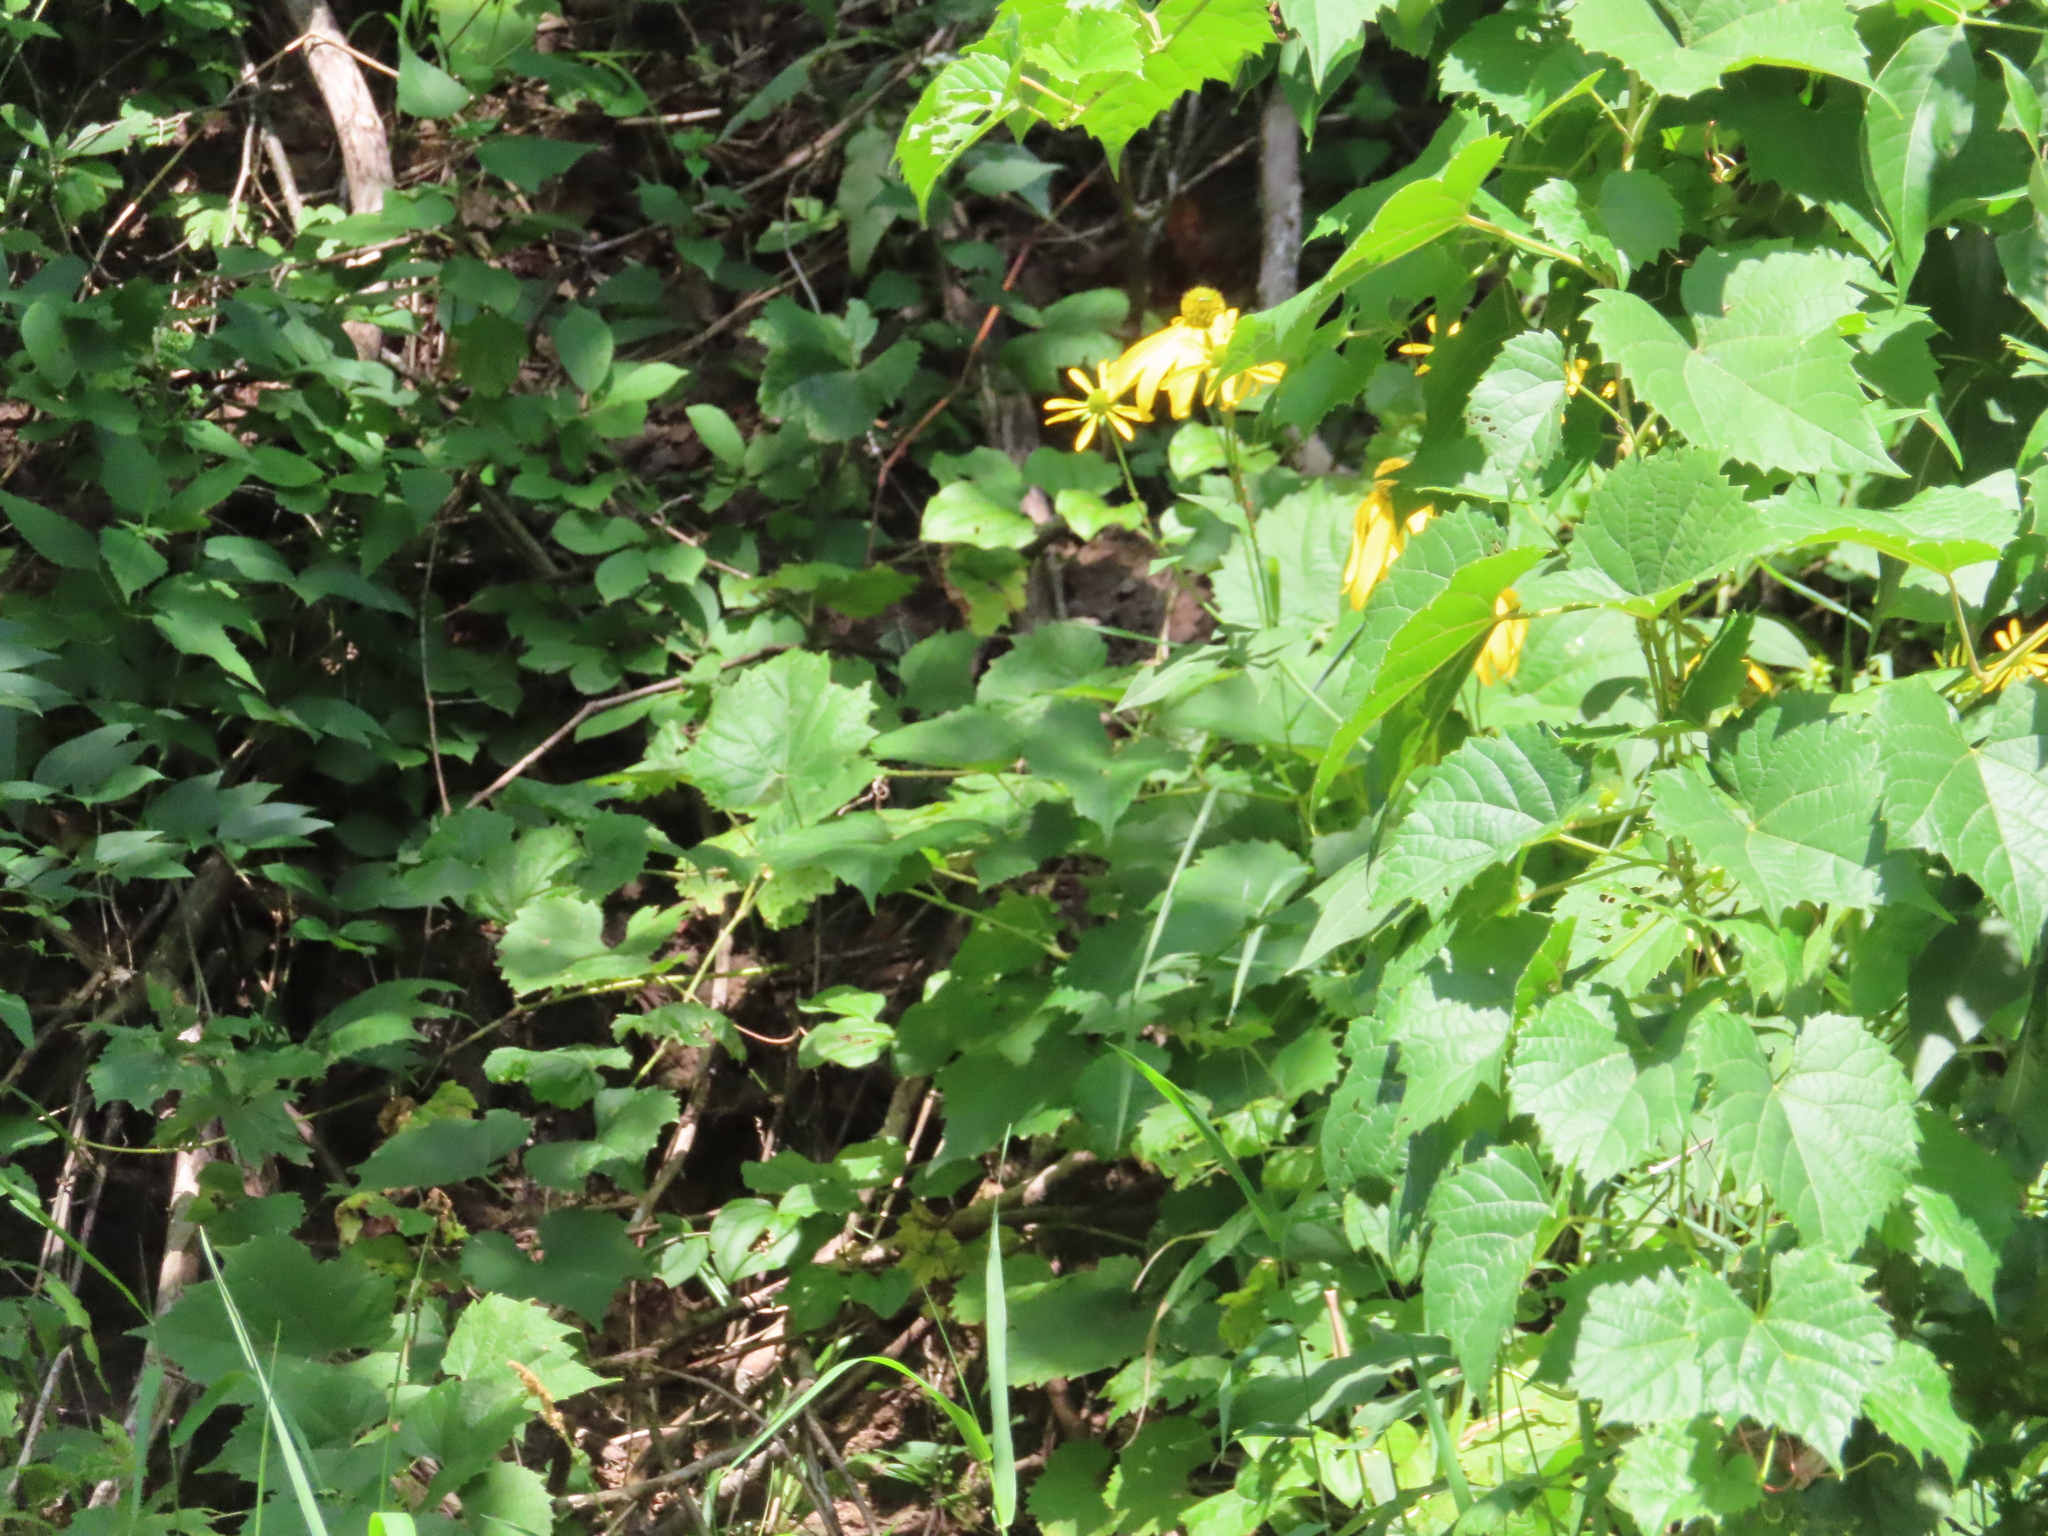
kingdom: Plantae
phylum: Tracheophyta
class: Magnoliopsida
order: Asterales
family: Asteraceae
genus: Helianthus
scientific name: Helianthus divaricatus
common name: Divergent sunflower
